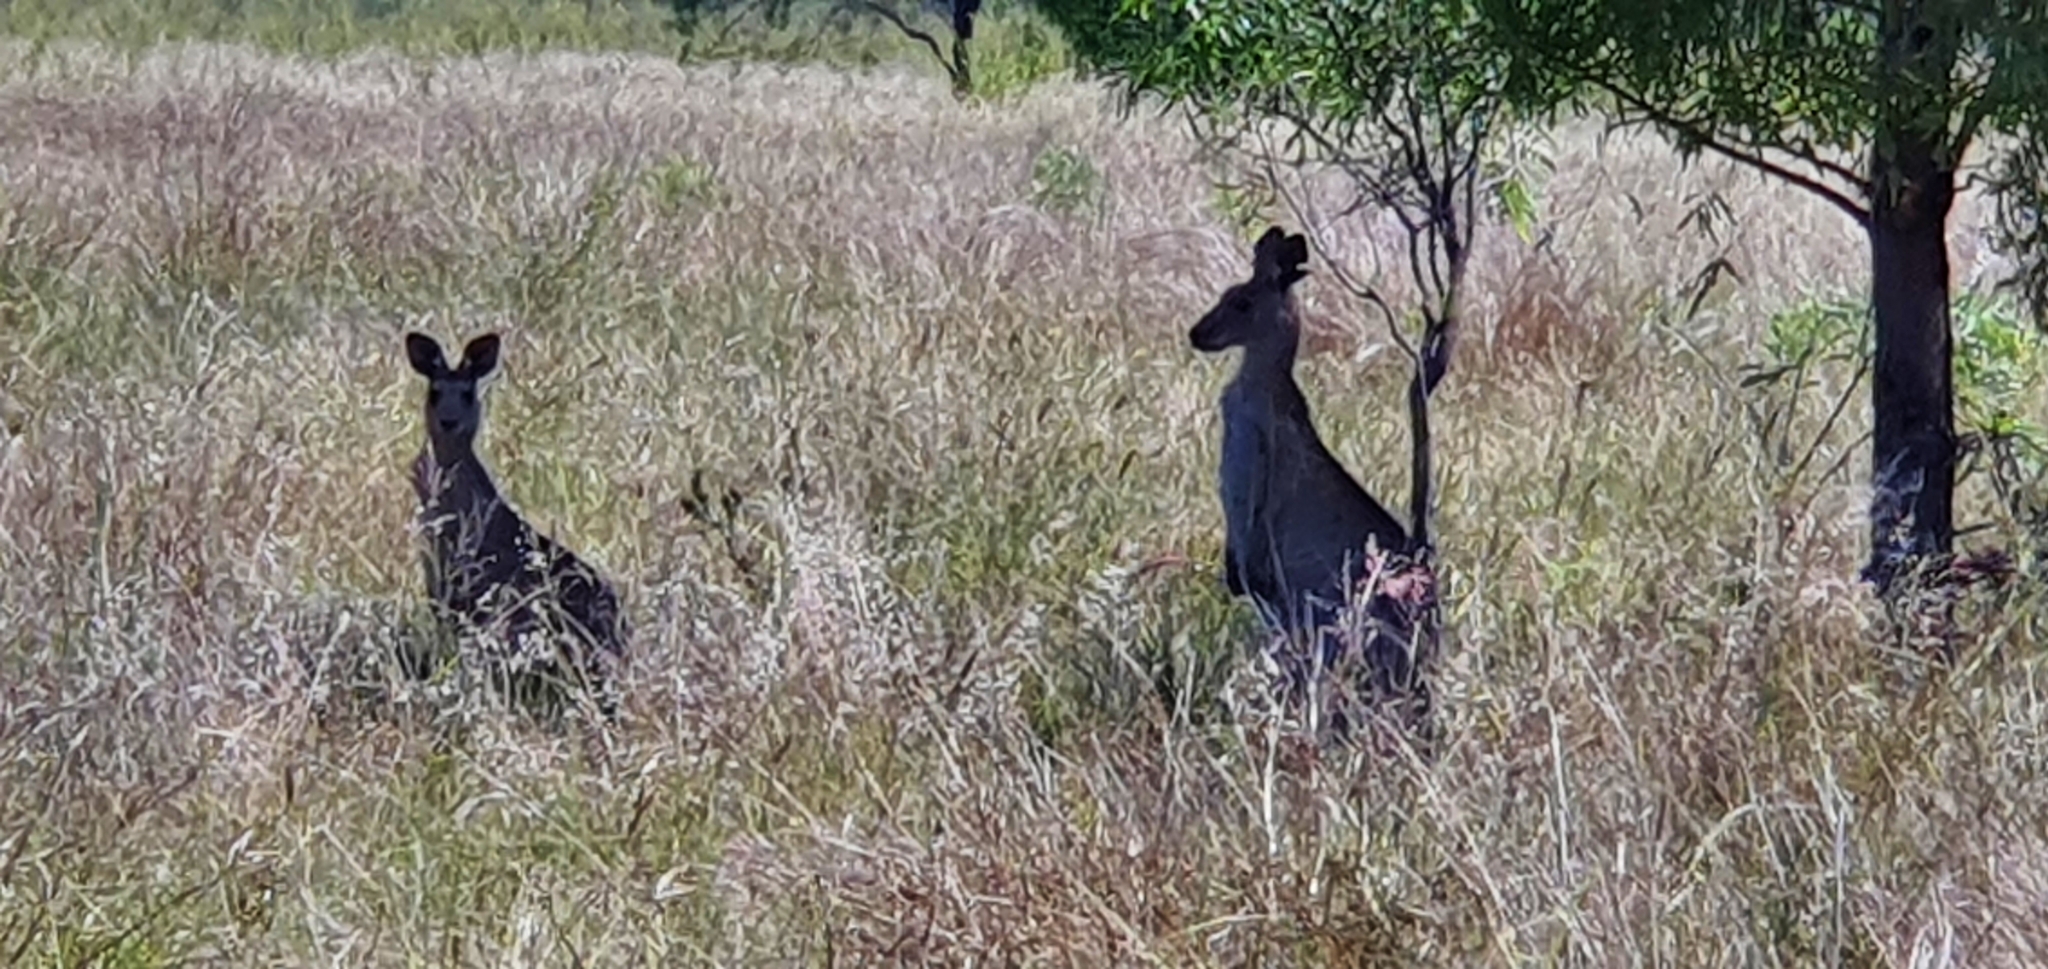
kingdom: Animalia
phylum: Chordata
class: Mammalia
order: Diprotodontia
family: Macropodidae
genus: Macropus
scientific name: Macropus giganteus
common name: Eastern grey kangaroo
